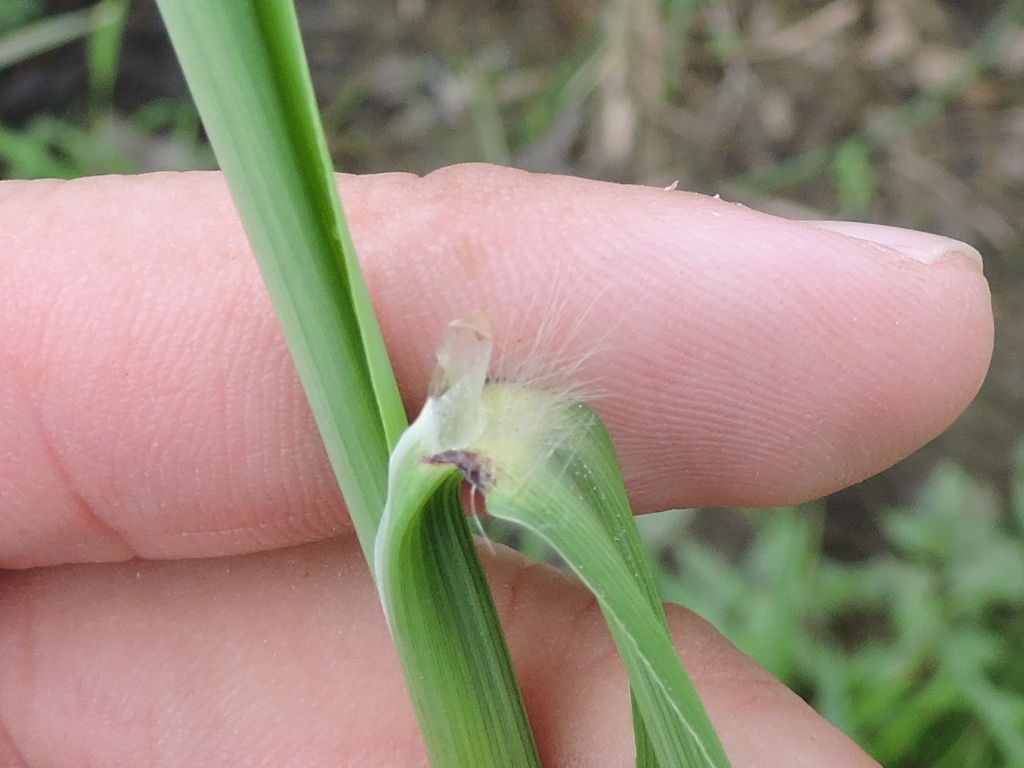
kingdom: Plantae
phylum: Tracheophyta
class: Liliopsida
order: Poales
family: Poaceae
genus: Paspalum
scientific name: Paspalum urvillei
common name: Vasey's grass
